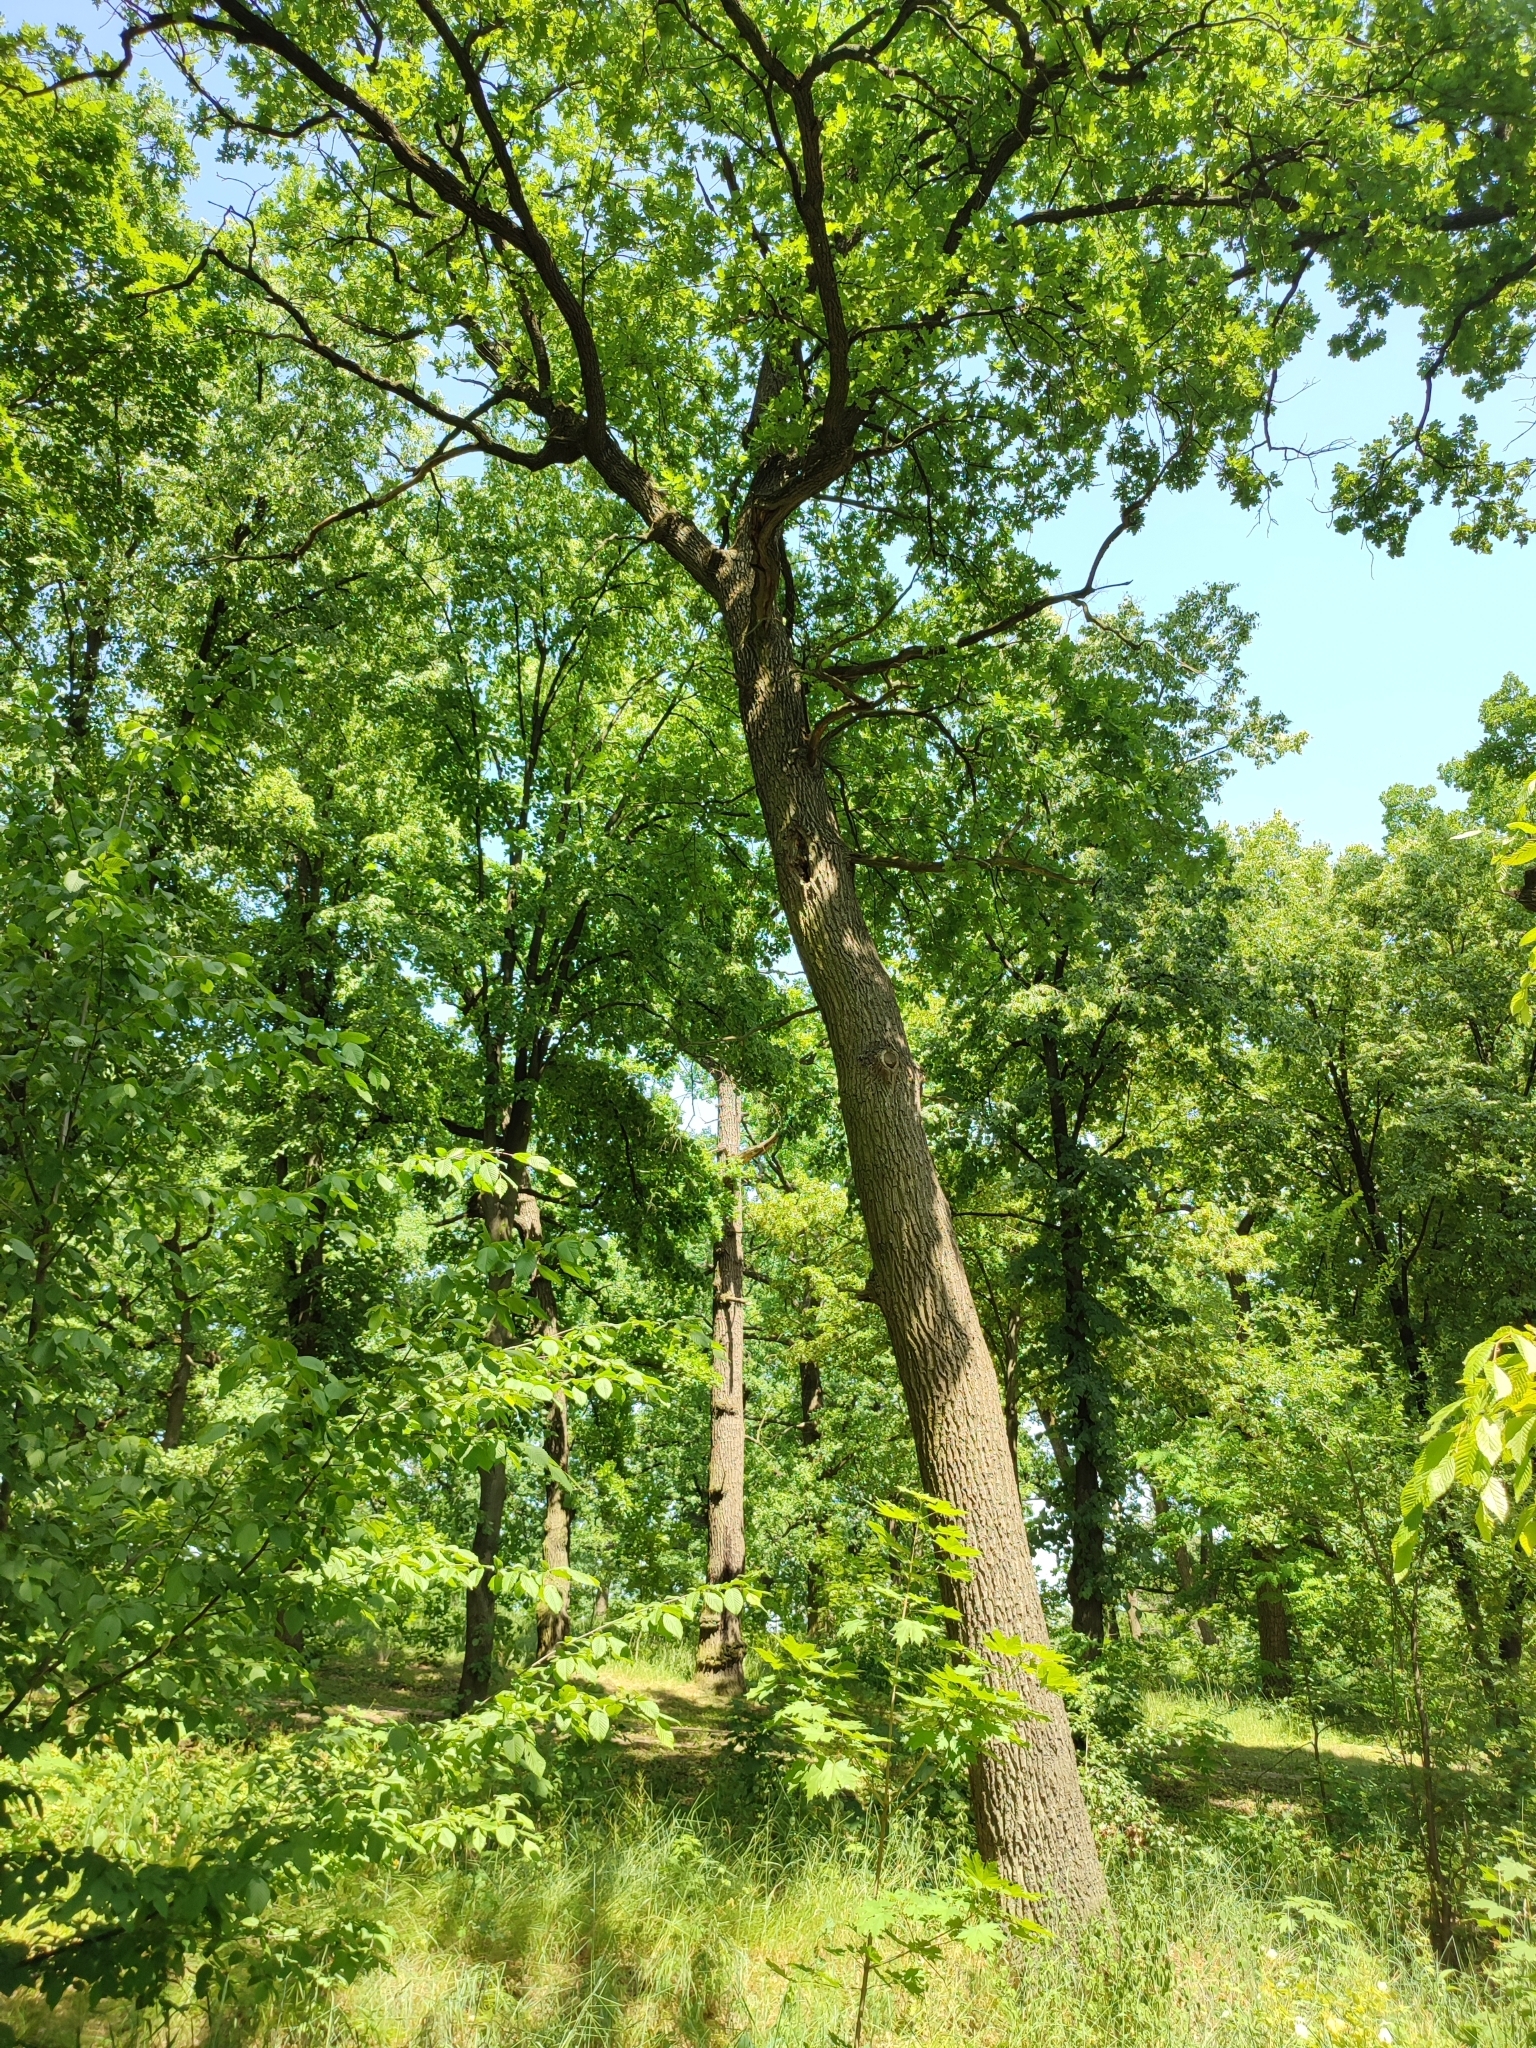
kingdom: Plantae
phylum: Tracheophyta
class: Magnoliopsida
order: Fagales
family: Fagaceae
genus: Quercus
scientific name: Quercus robur
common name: Pedunculate oak
